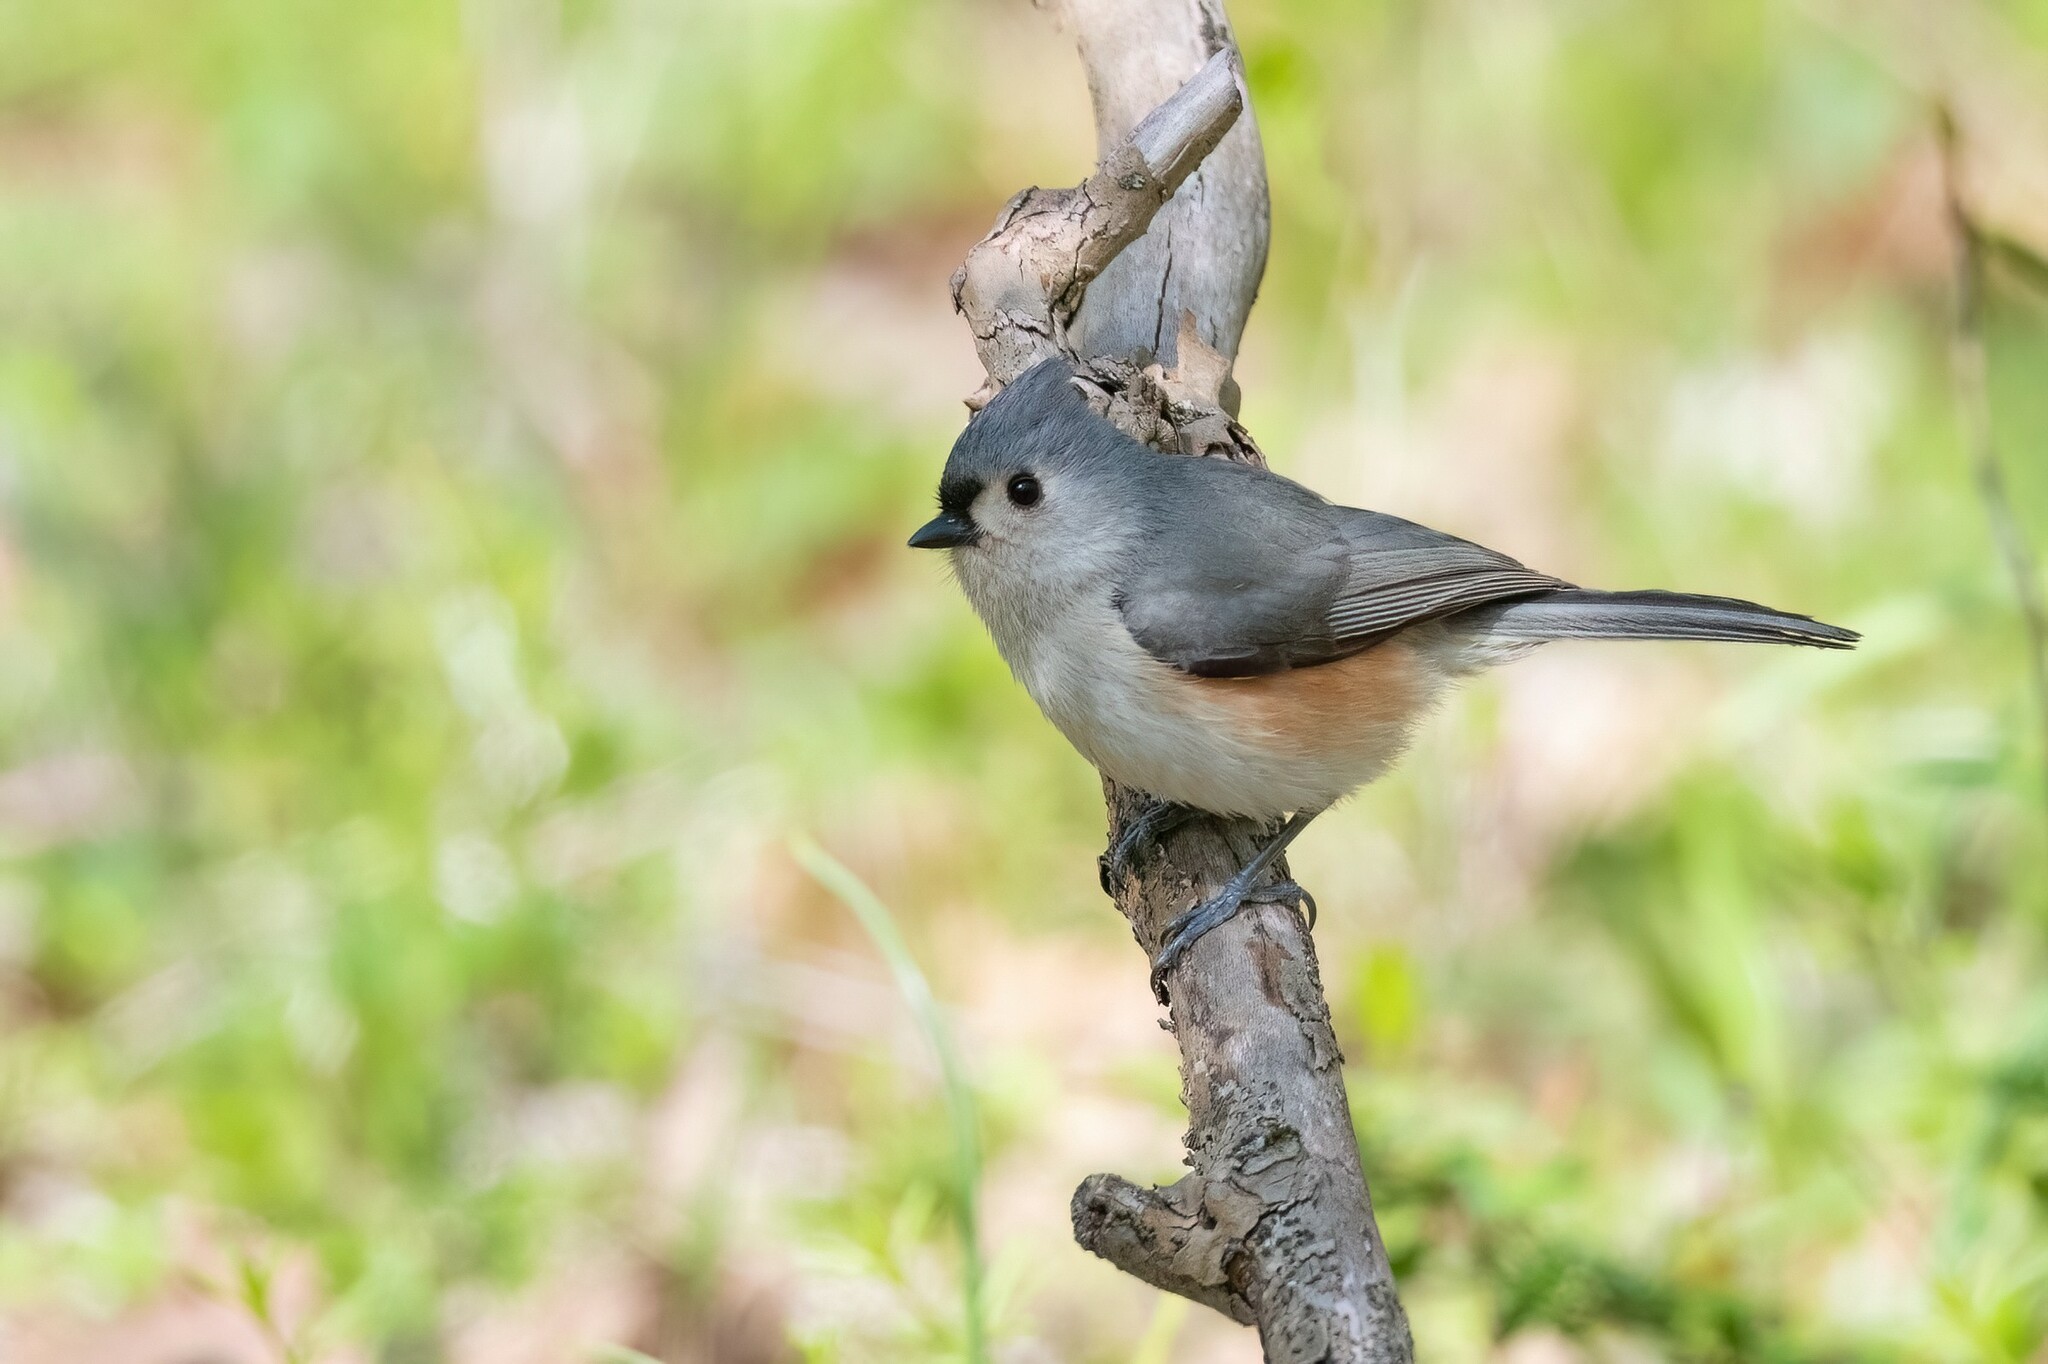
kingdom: Animalia
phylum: Chordata
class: Aves
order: Passeriformes
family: Paridae
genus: Baeolophus
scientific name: Baeolophus bicolor
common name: Tufted titmouse
